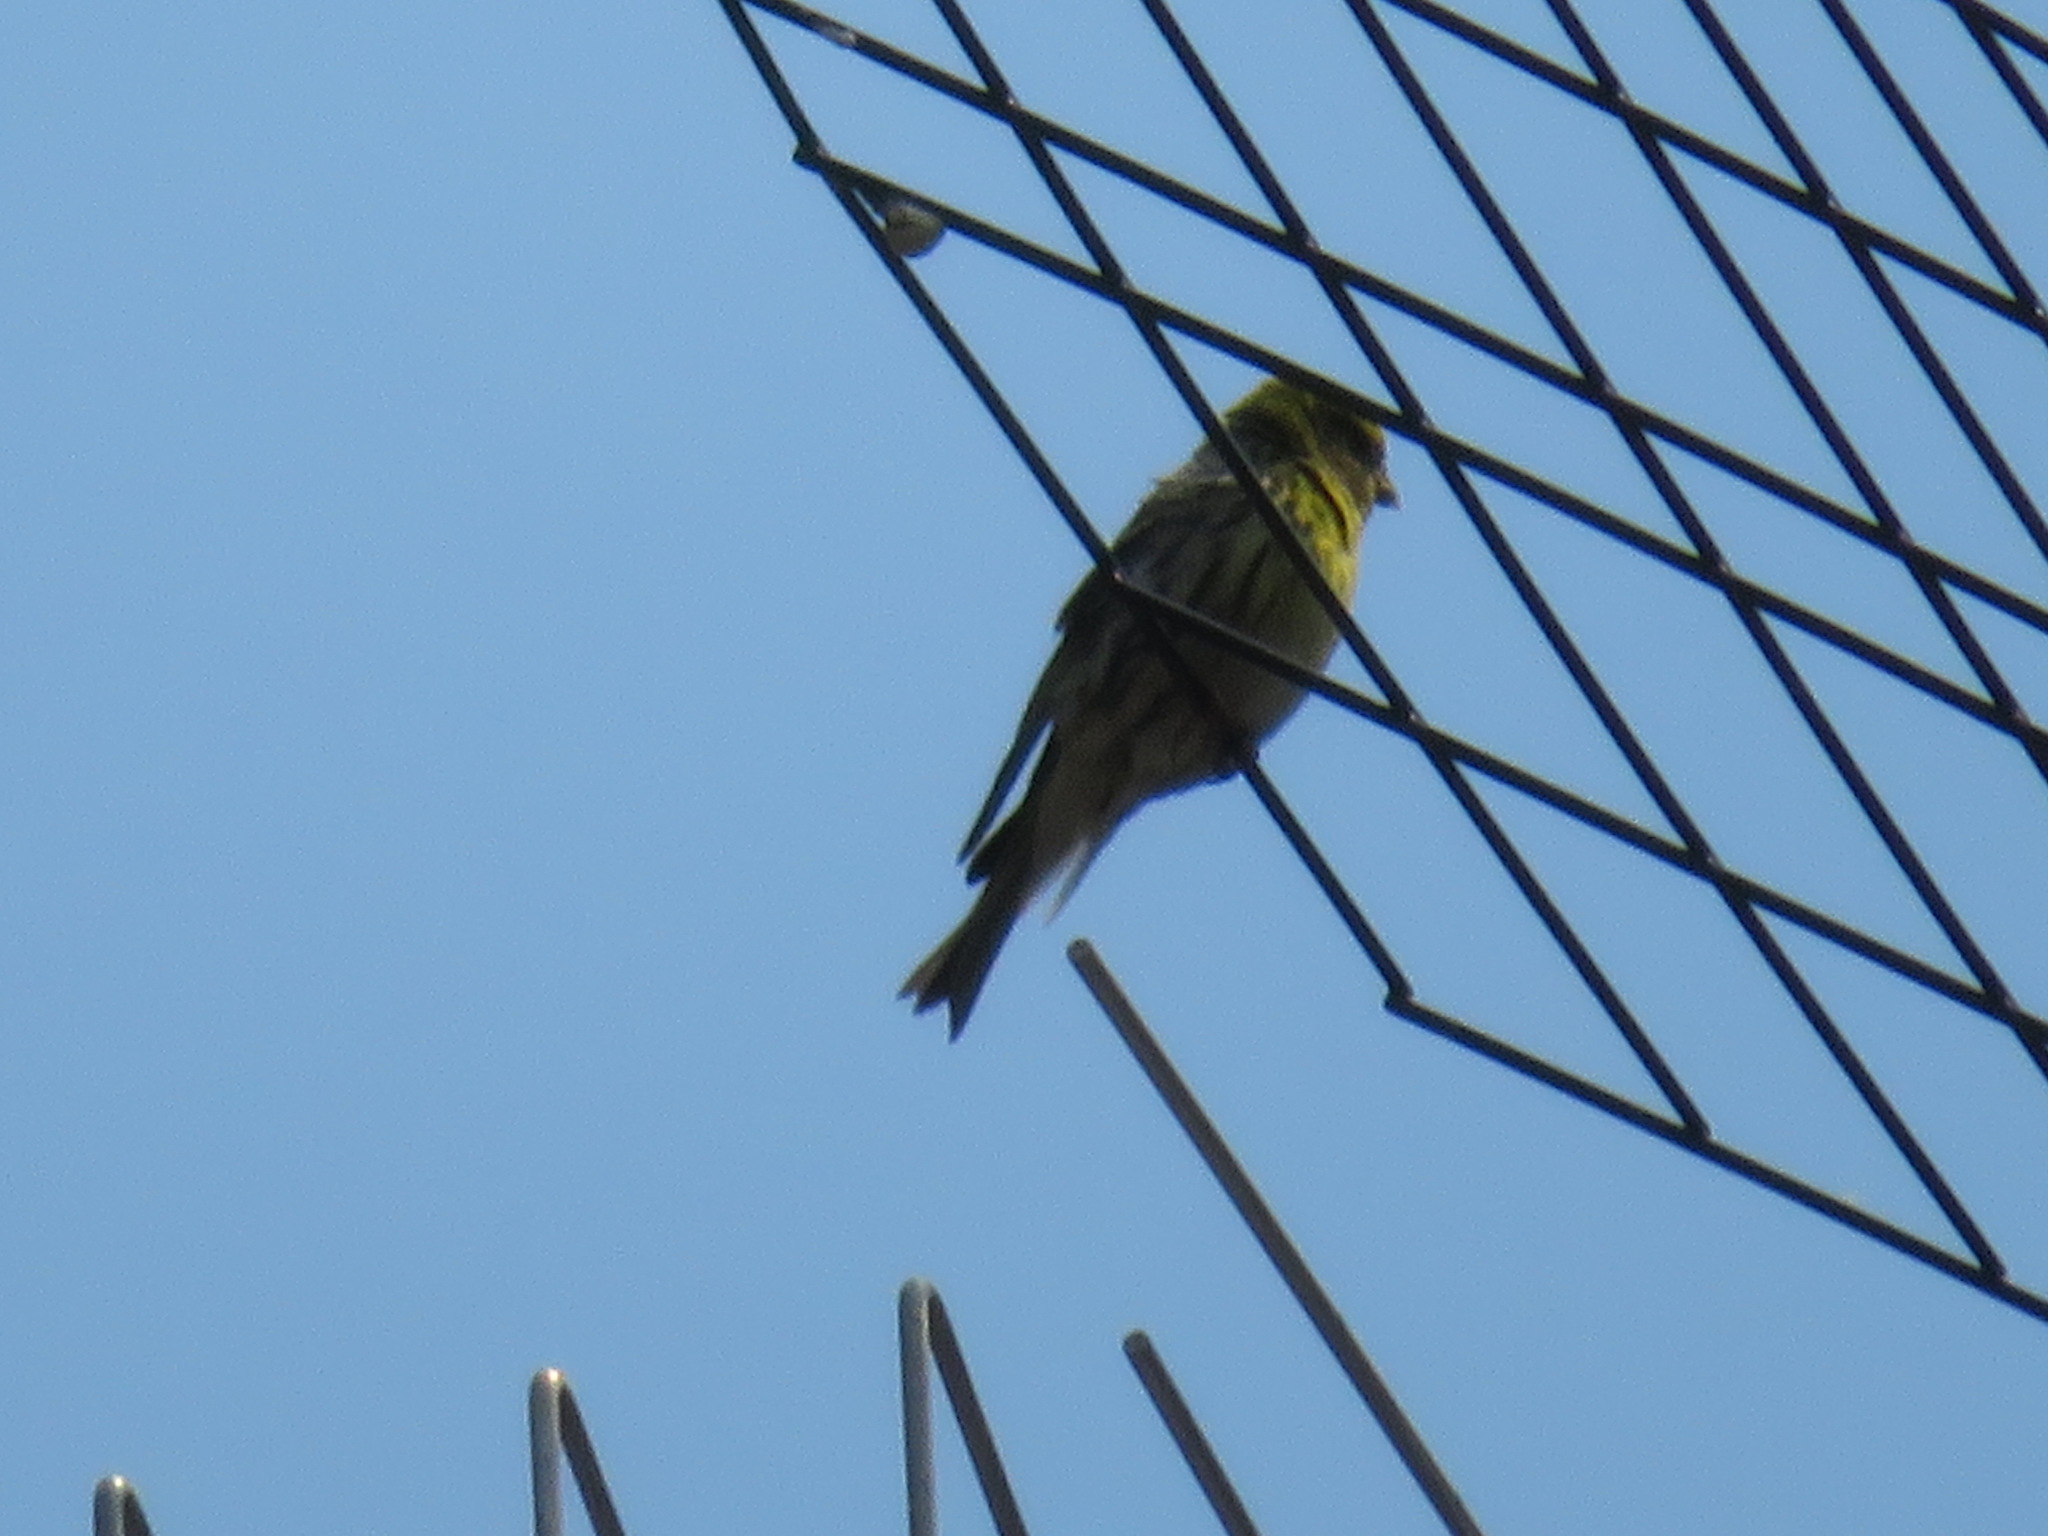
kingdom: Animalia
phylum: Chordata
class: Aves
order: Passeriformes
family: Fringillidae
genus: Serinus
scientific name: Serinus serinus
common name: European serin
